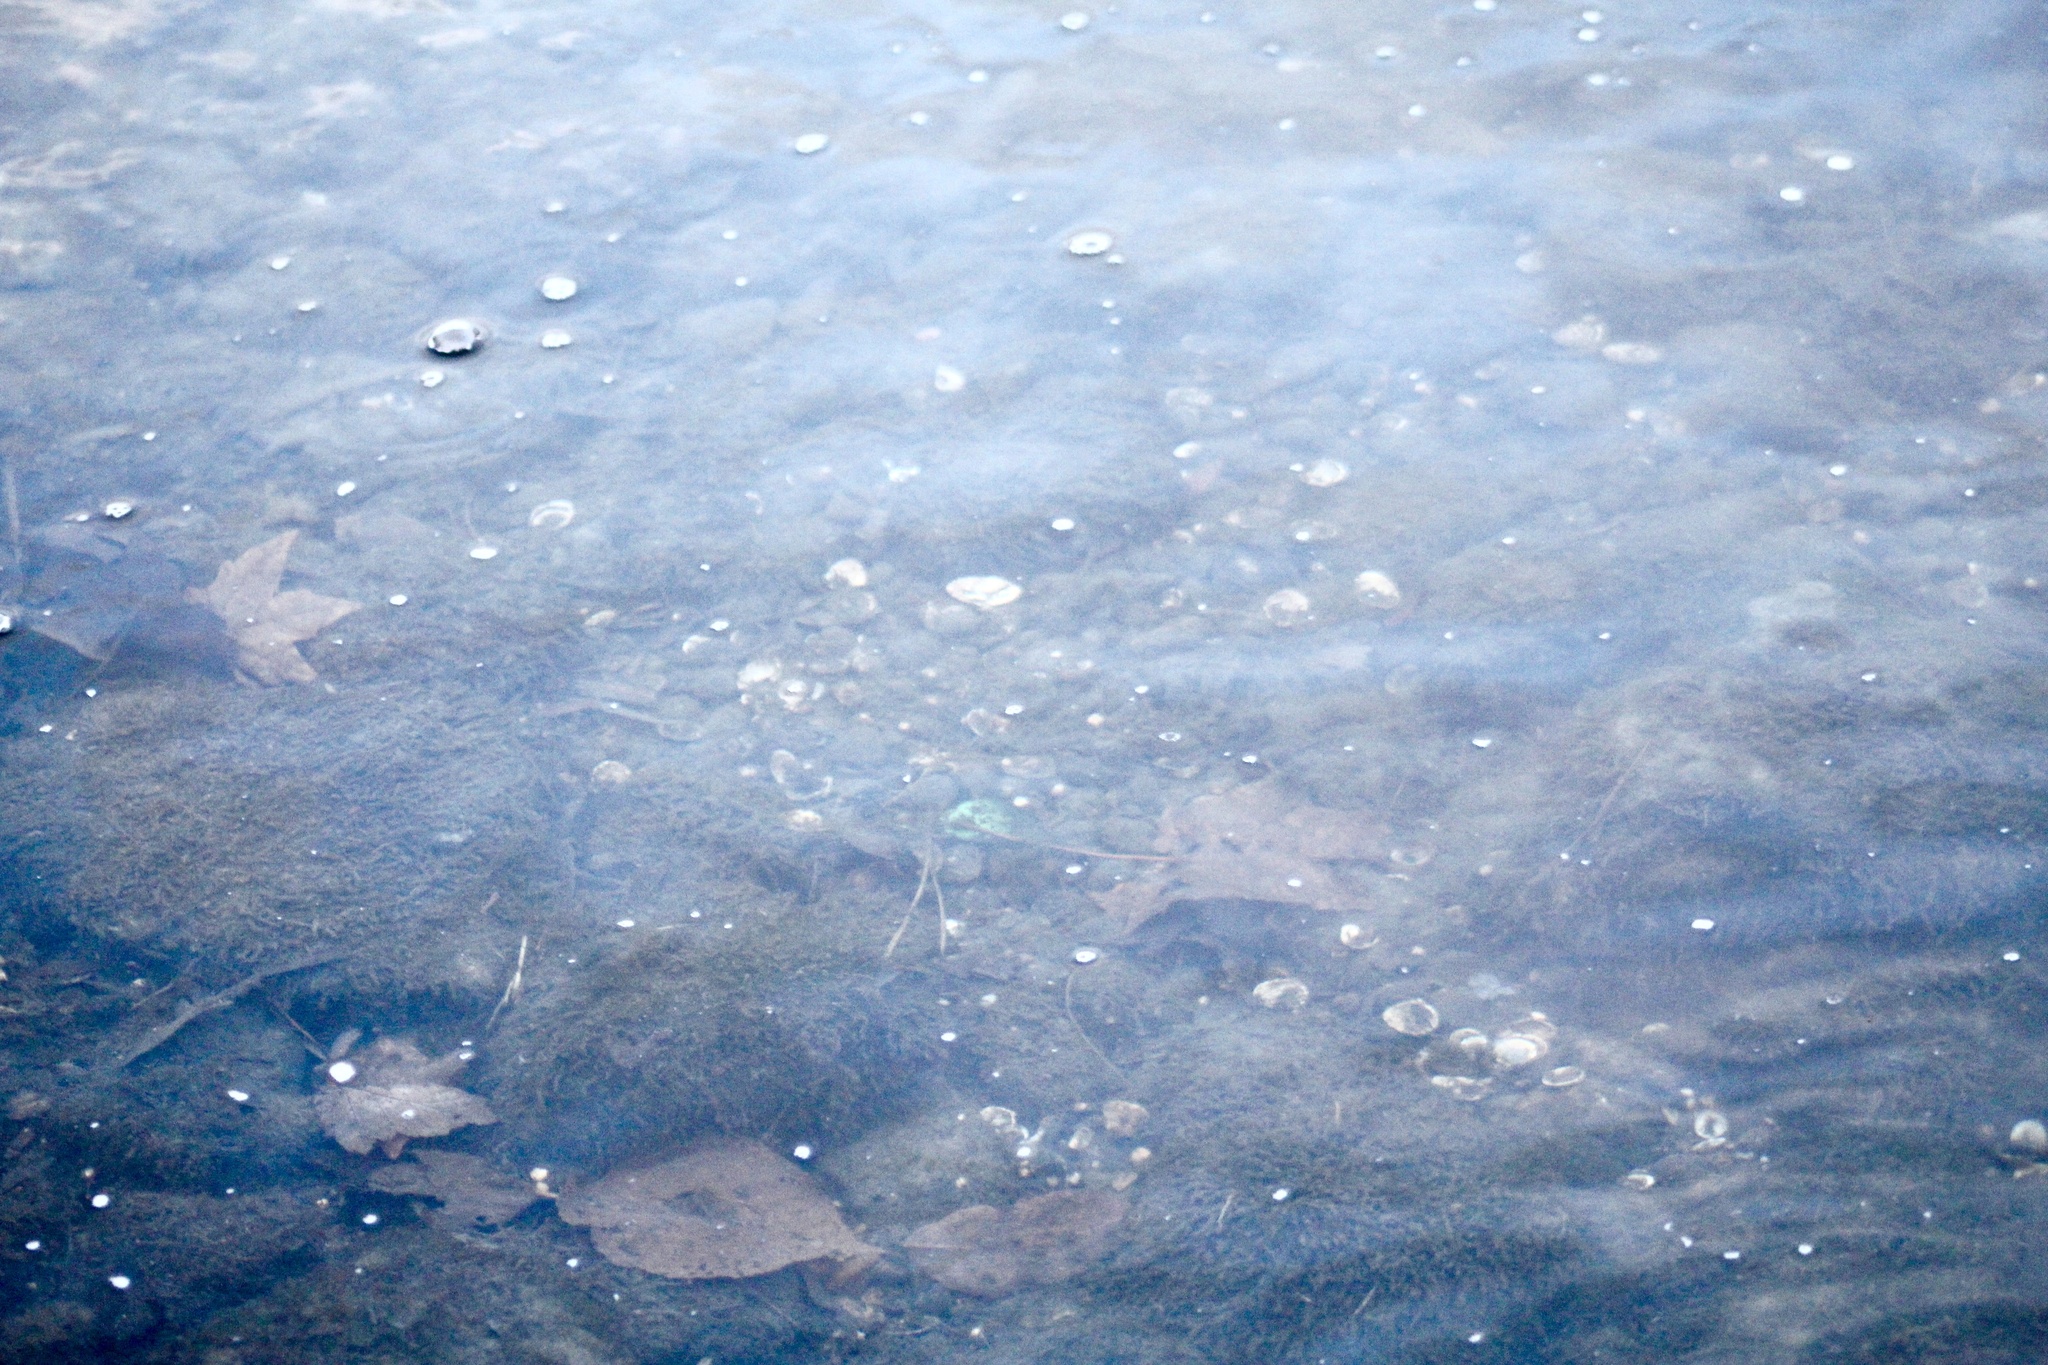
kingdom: Animalia
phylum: Mollusca
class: Bivalvia
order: Venerida
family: Cyrenidae
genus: Corbicula
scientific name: Corbicula fluminea
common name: Asian clam
